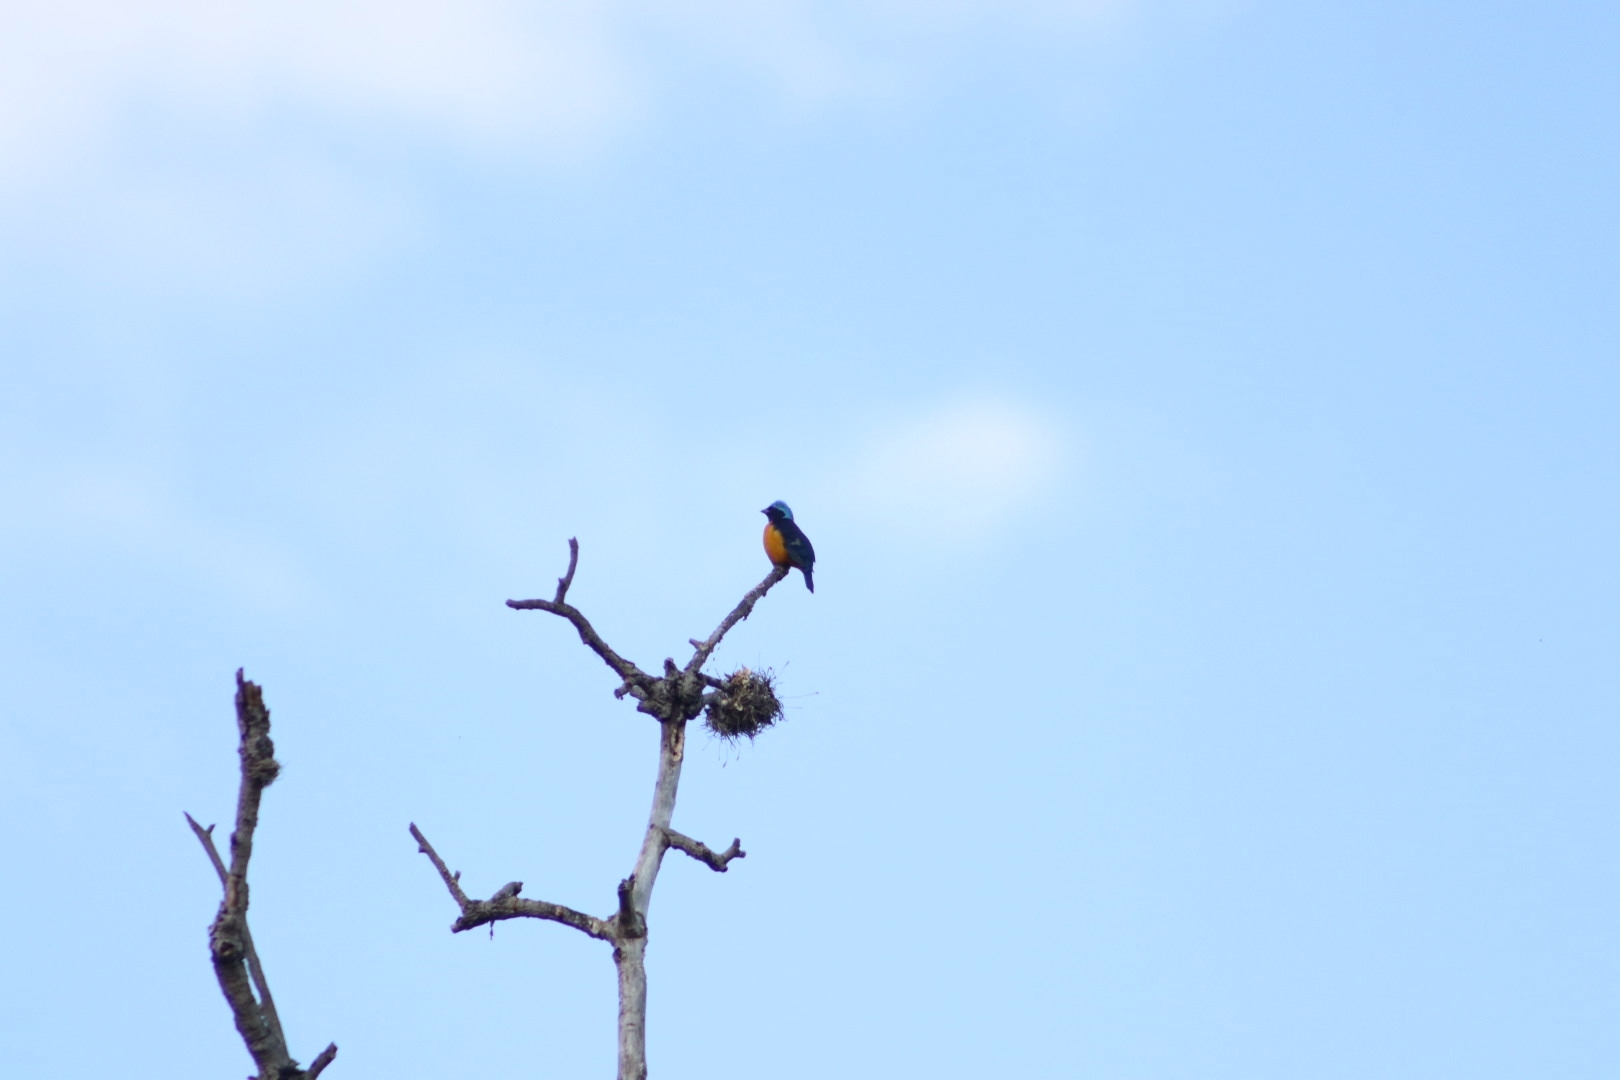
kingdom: Animalia
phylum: Chordata
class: Aves
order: Passeriformes
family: Fringillidae
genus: Euphonia
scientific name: Euphonia elegantissima
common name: Elegant euphonia
